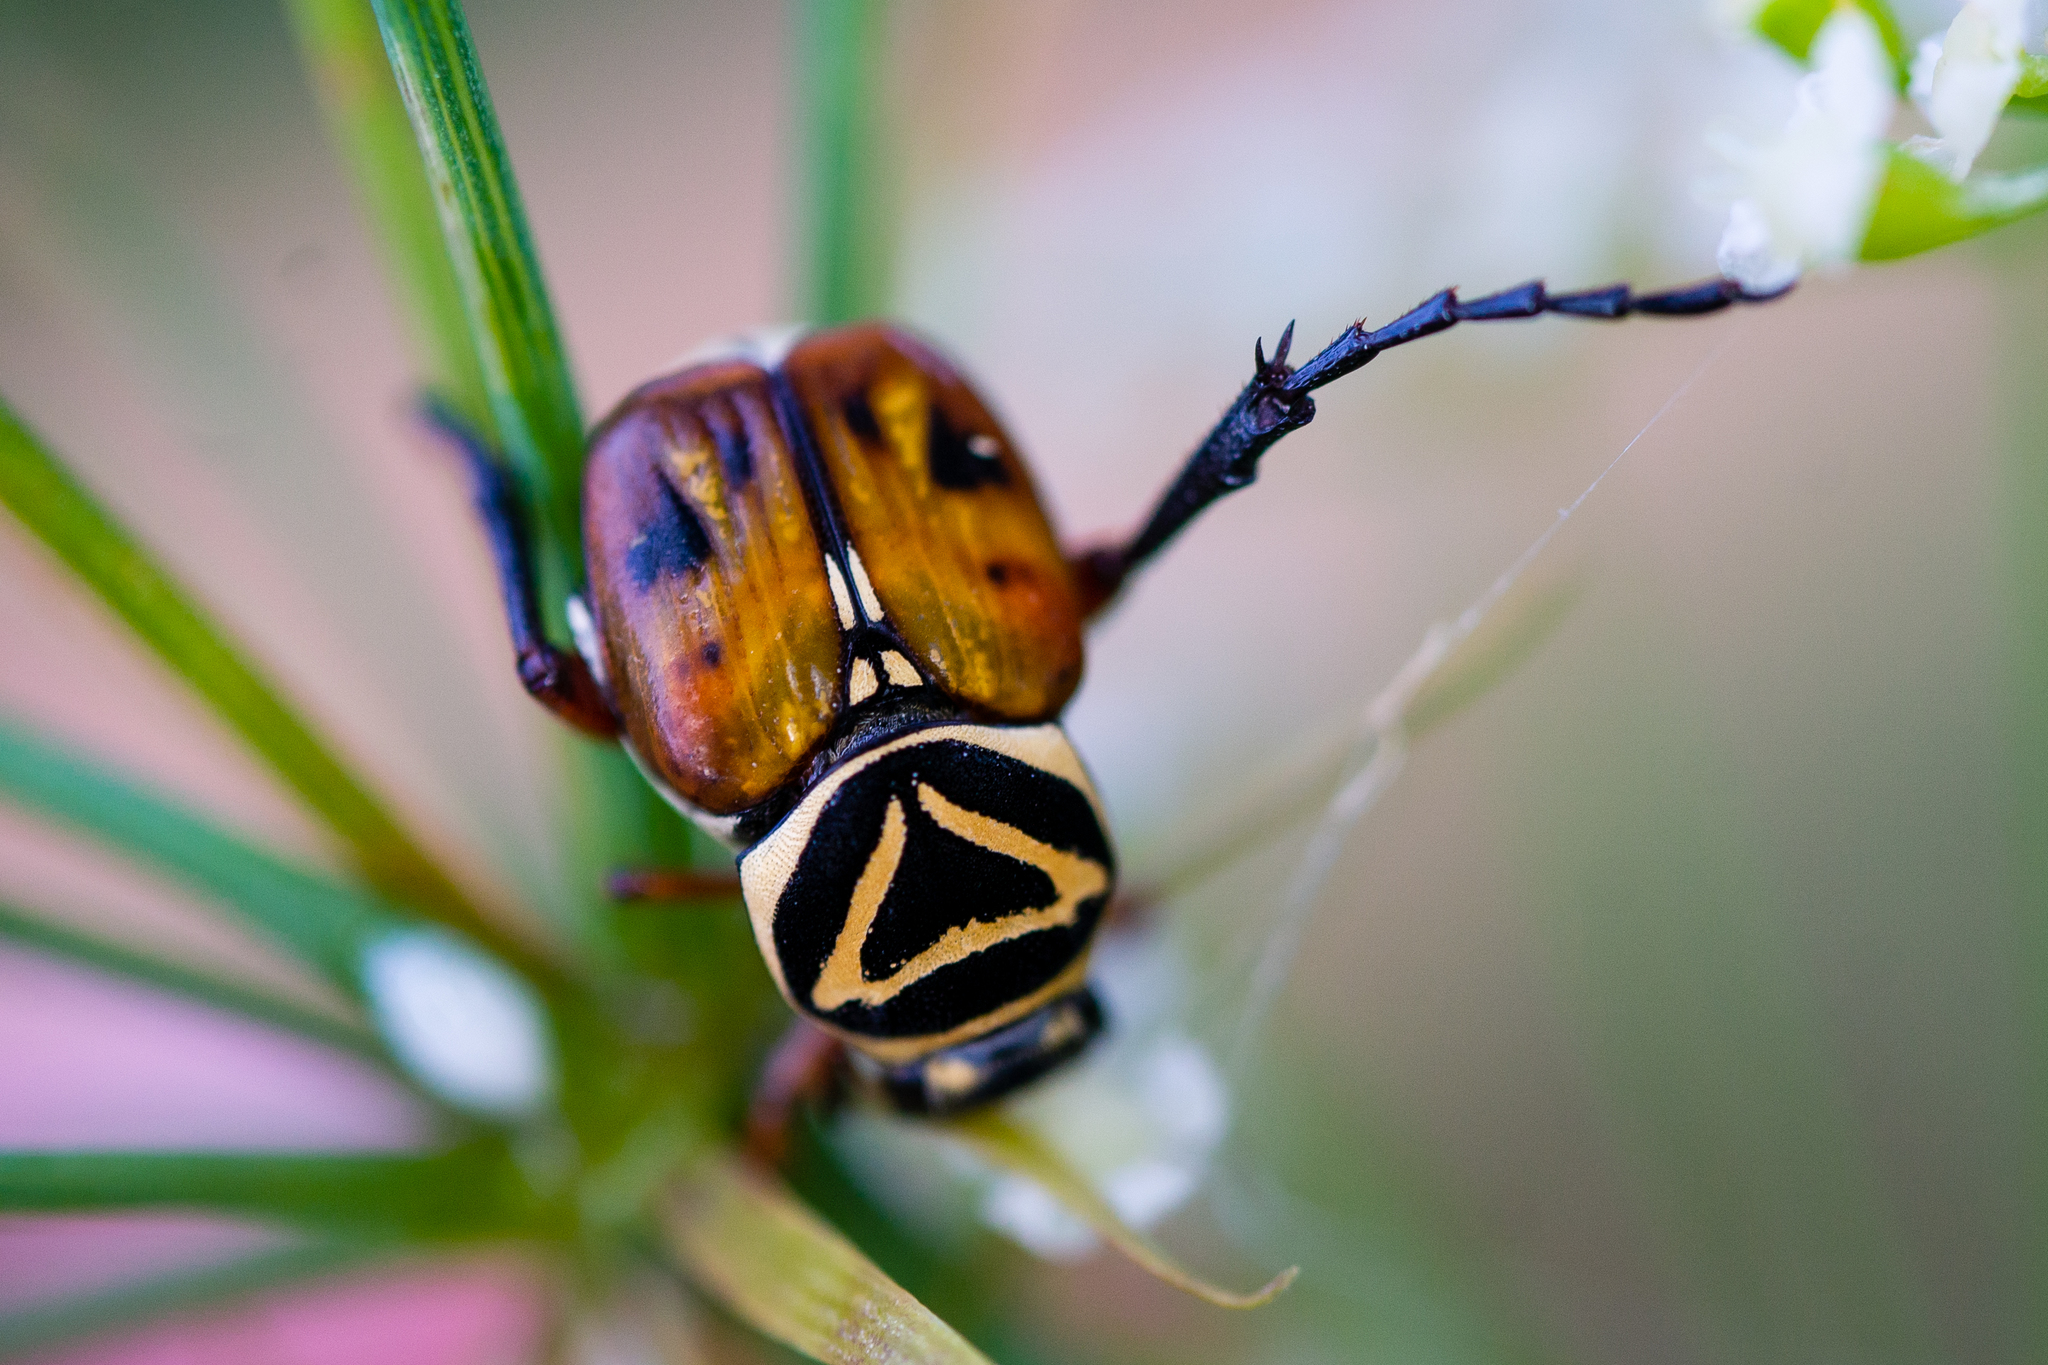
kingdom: Animalia
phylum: Arthropoda
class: Insecta
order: Coleoptera
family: Scarabaeidae
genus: Trigonopeltastes
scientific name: Trigonopeltastes delta
